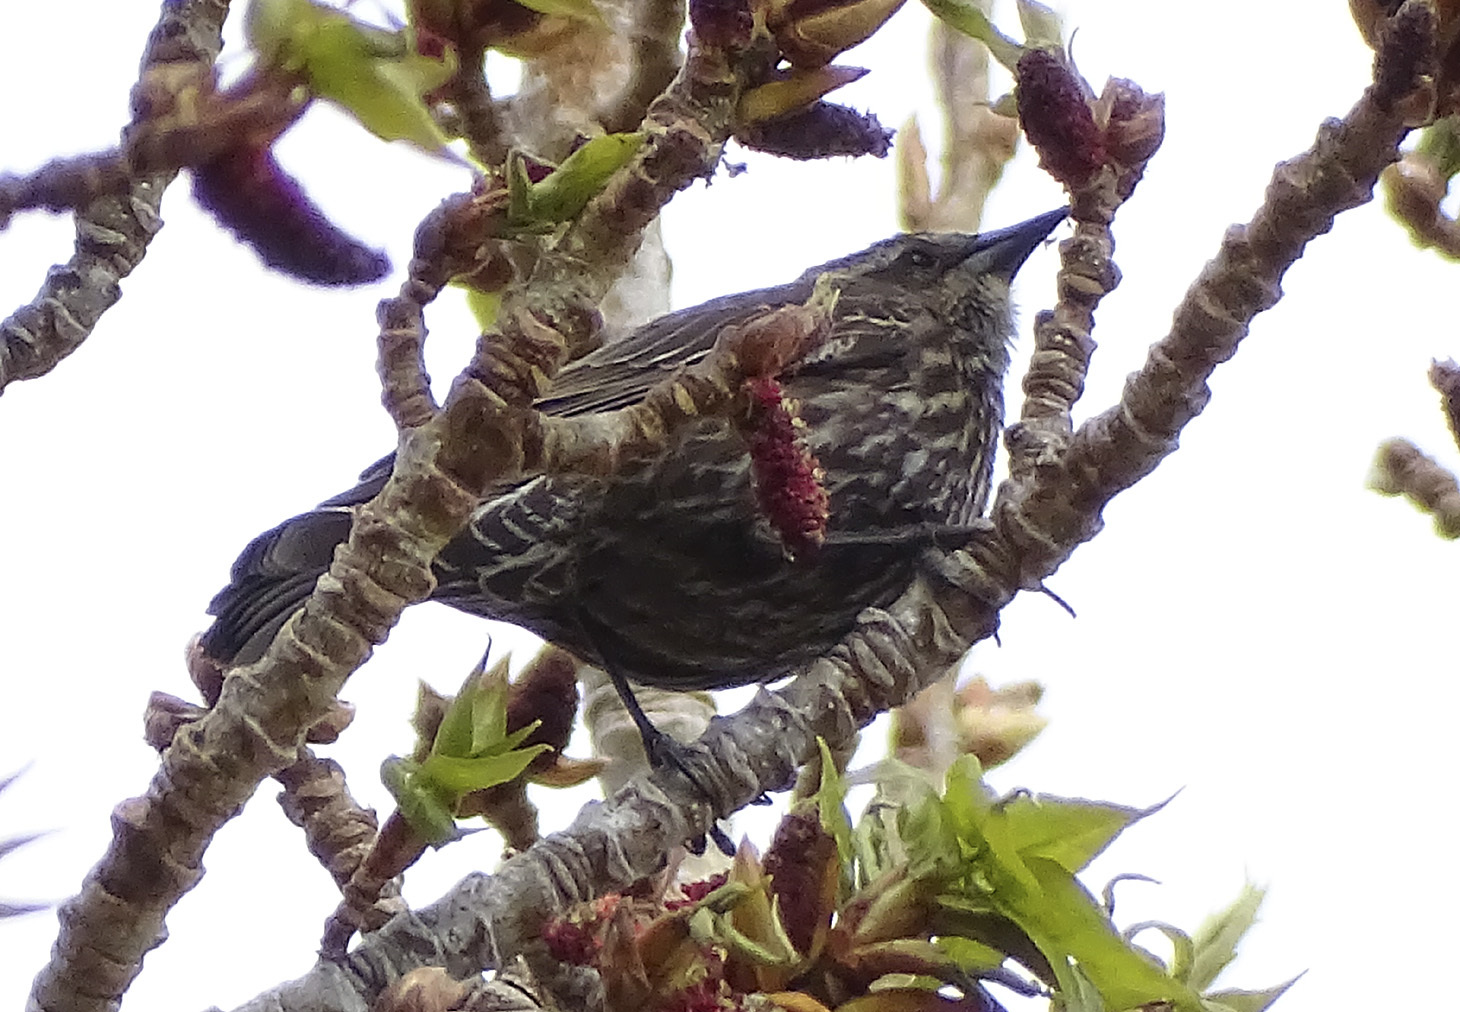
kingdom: Animalia
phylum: Chordata
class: Aves
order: Passeriformes
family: Icteridae
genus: Agelaius
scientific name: Agelaius phoeniceus
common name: Red-winged blackbird
